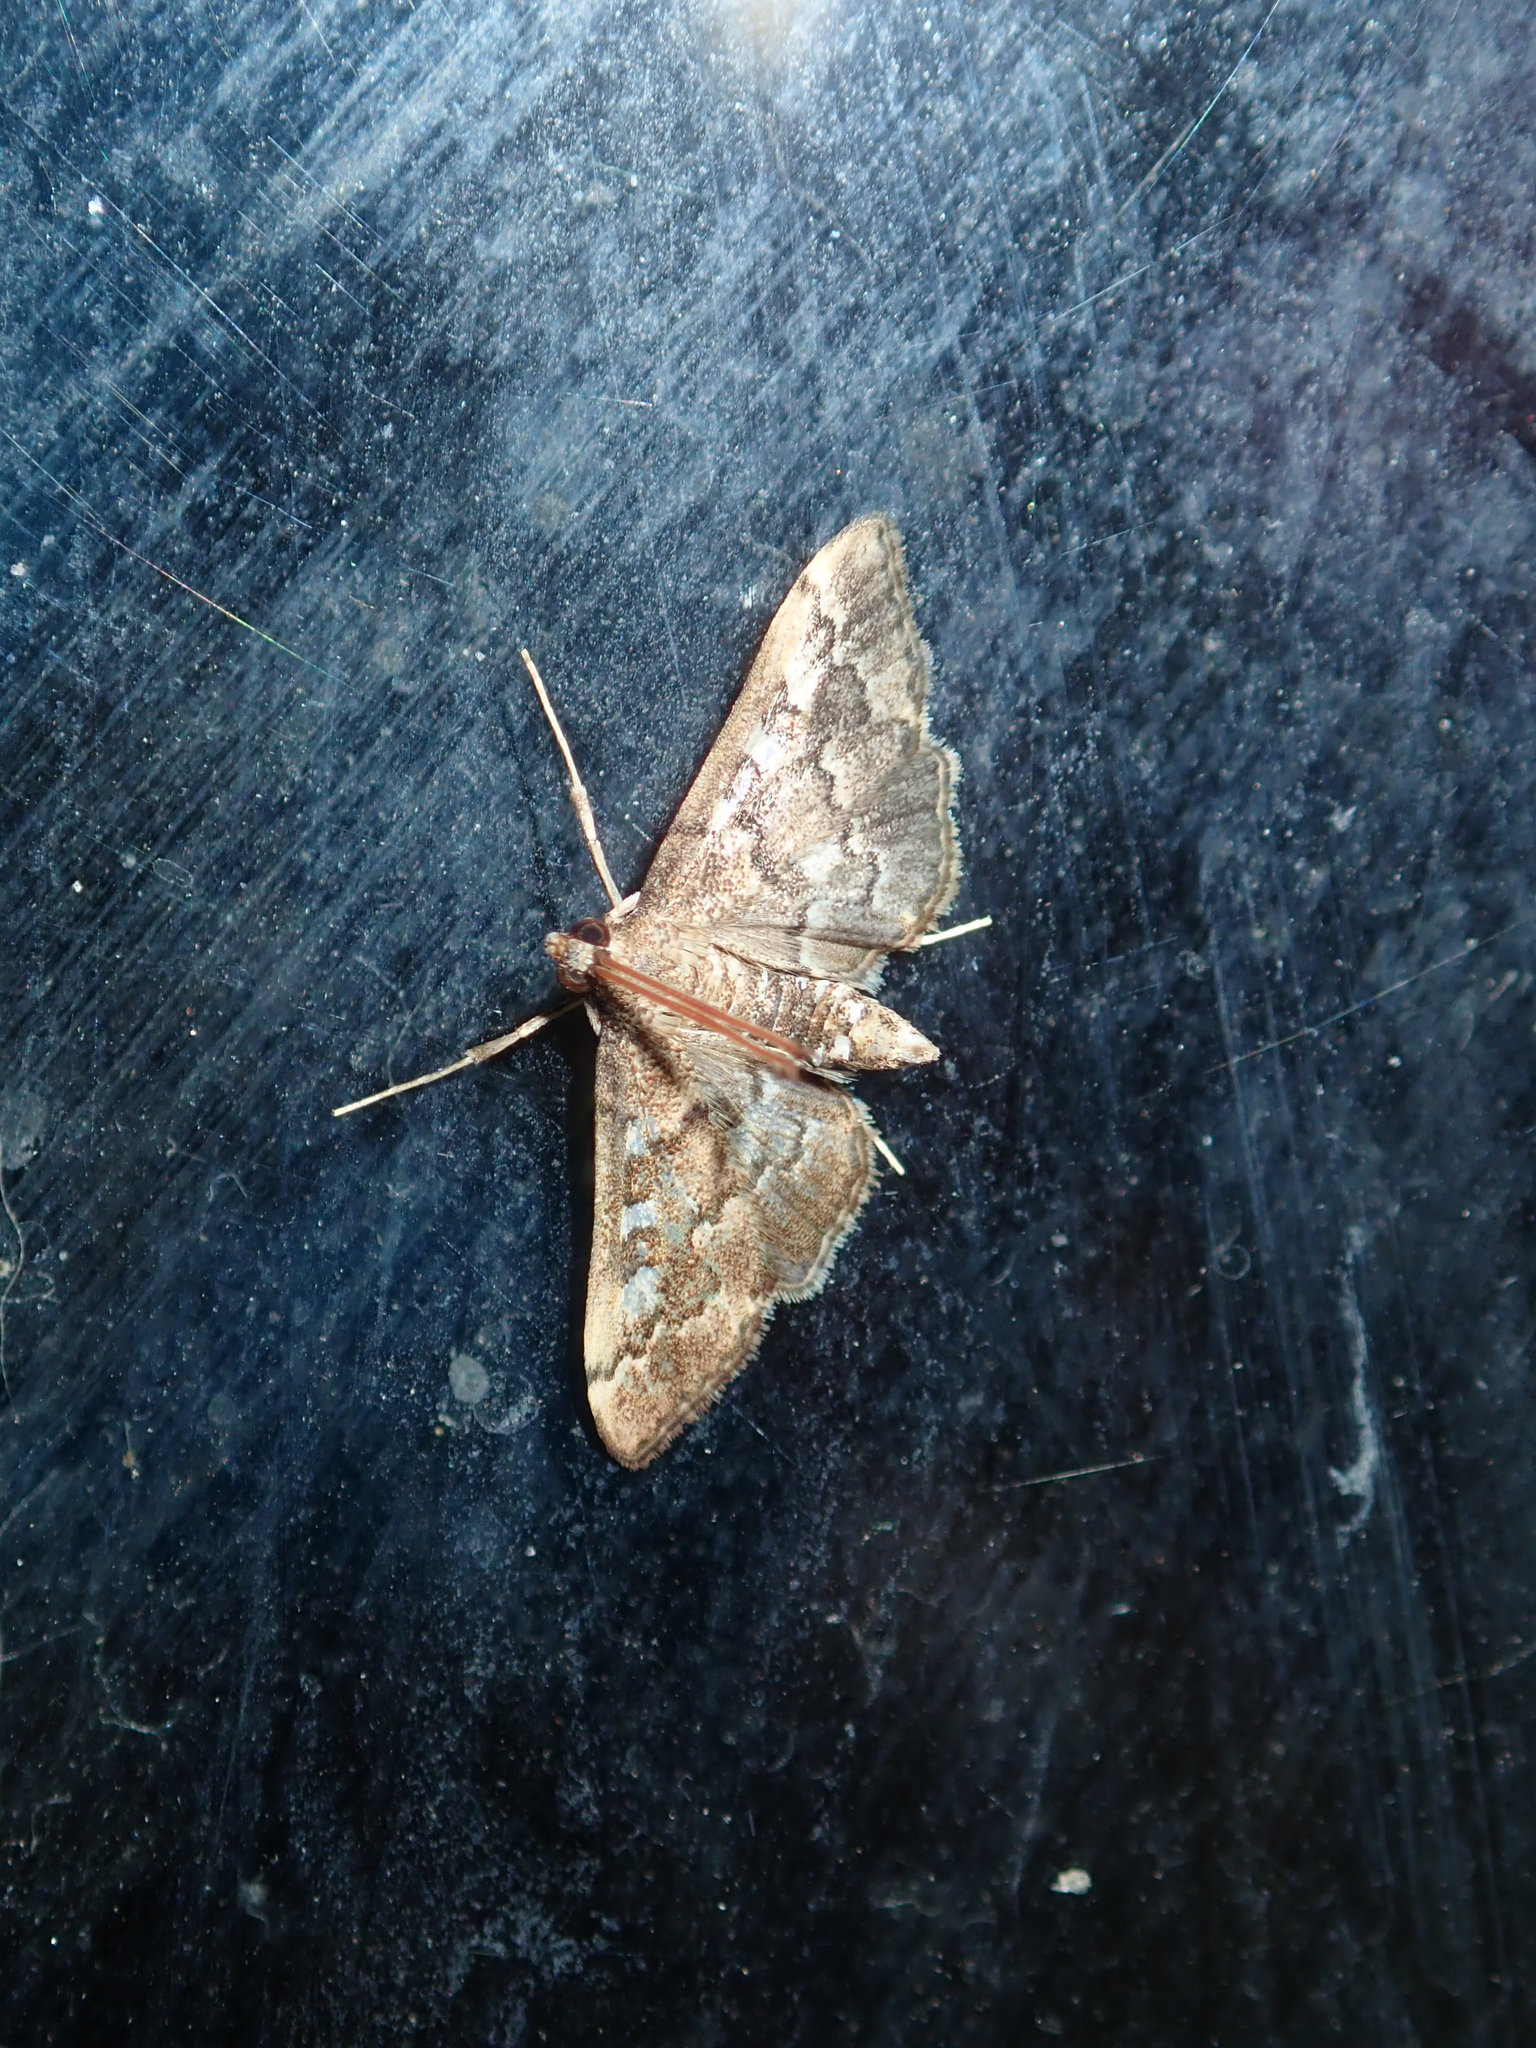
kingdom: Animalia
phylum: Arthropoda
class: Insecta
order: Lepidoptera
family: Crambidae
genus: Nacoleia
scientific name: Nacoleia rhoeoalis
